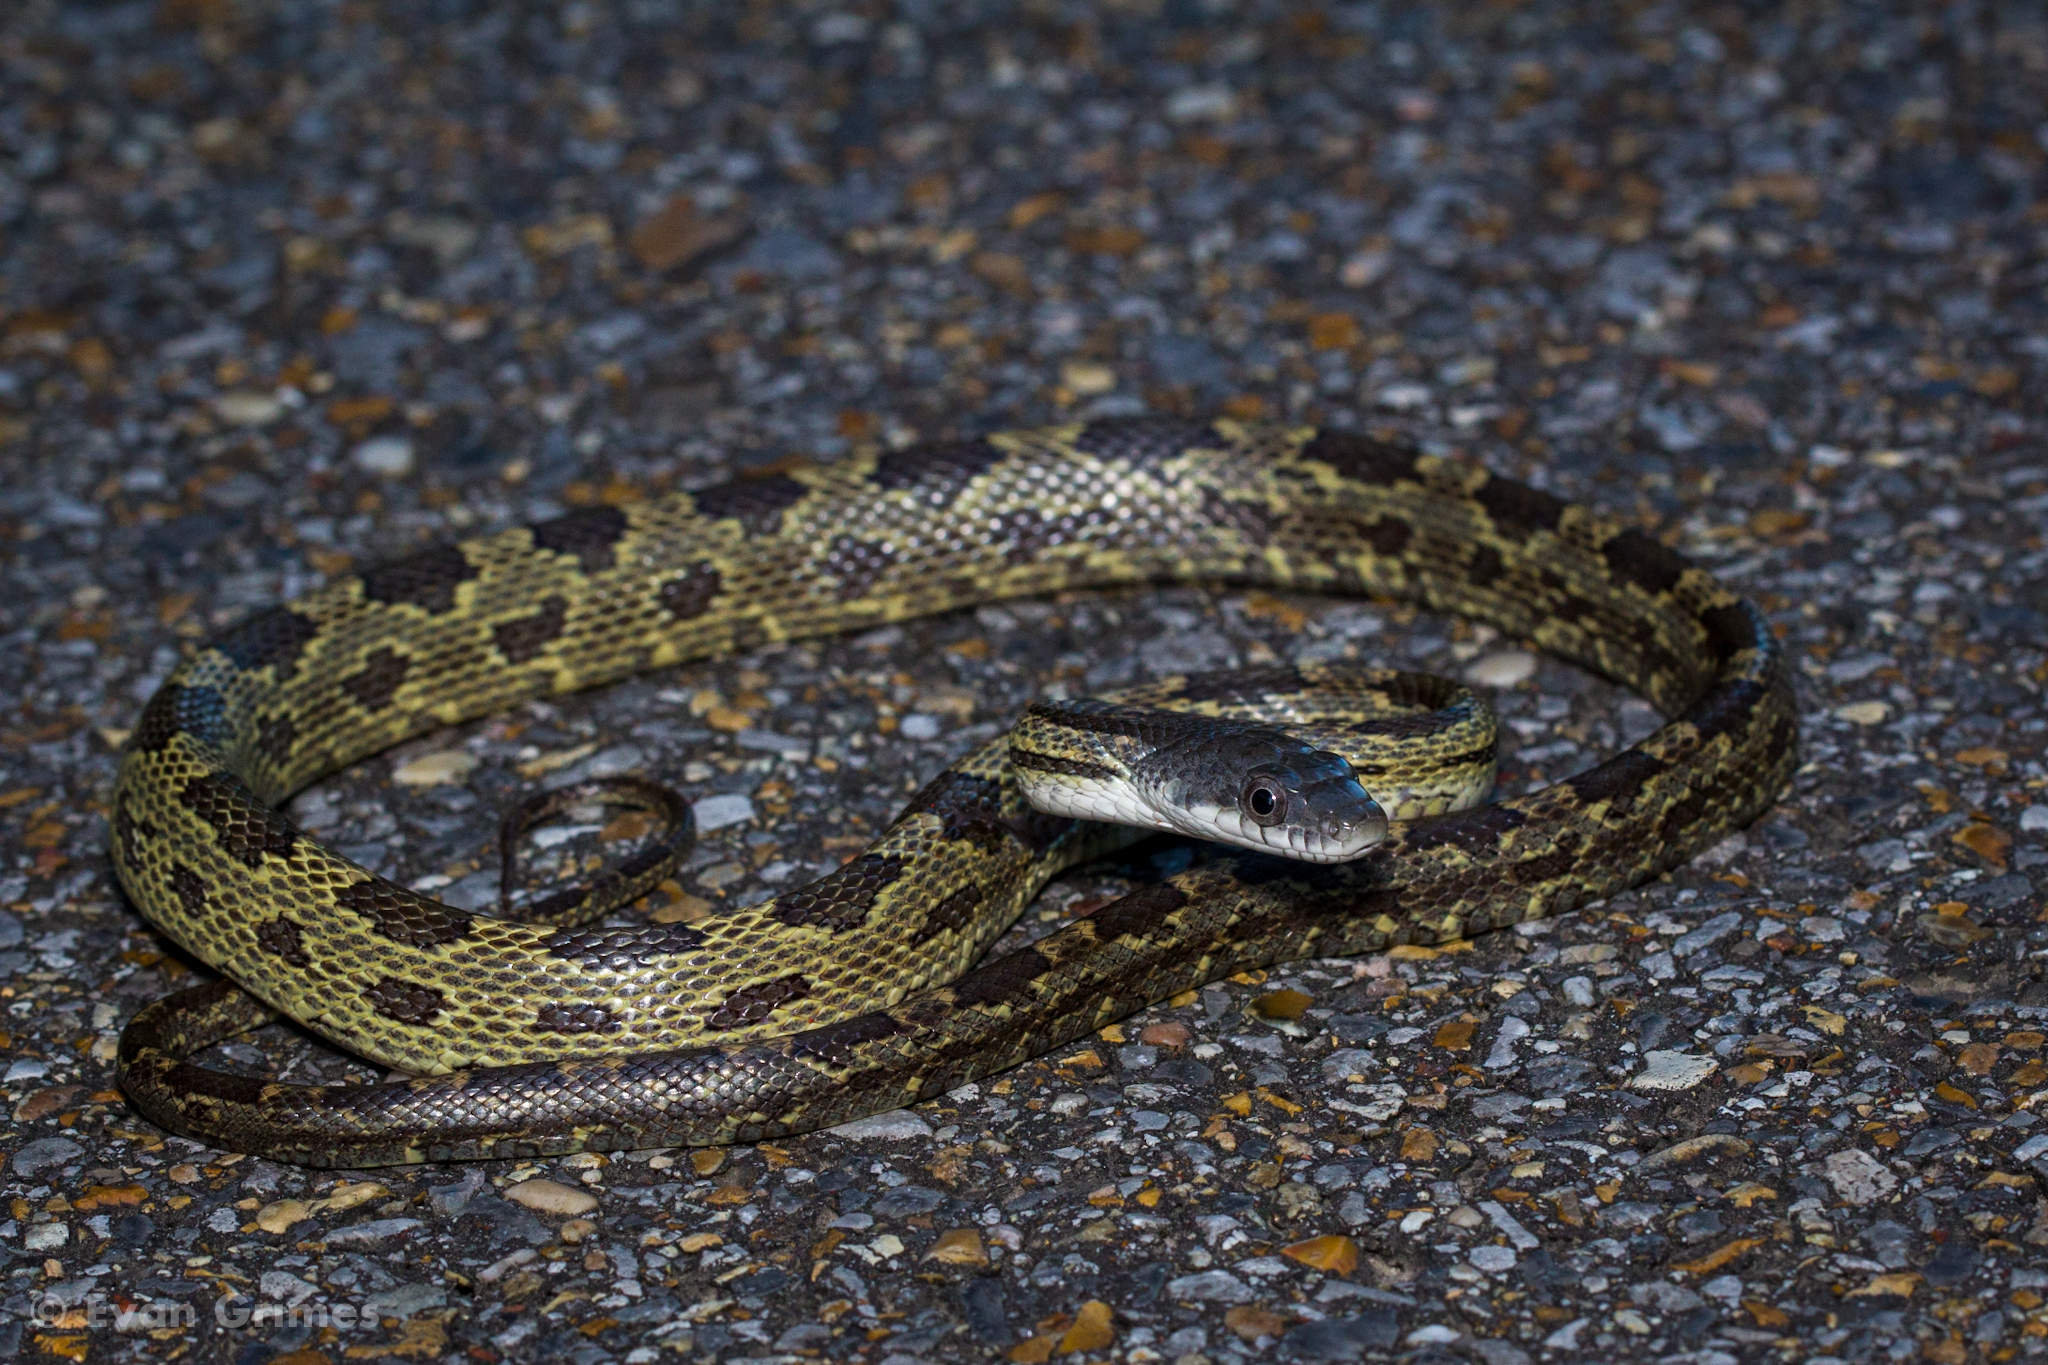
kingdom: Animalia
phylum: Chordata
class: Squamata
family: Colubridae
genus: Pantherophis
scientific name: Pantherophis spiloides
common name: Gray rat snake
